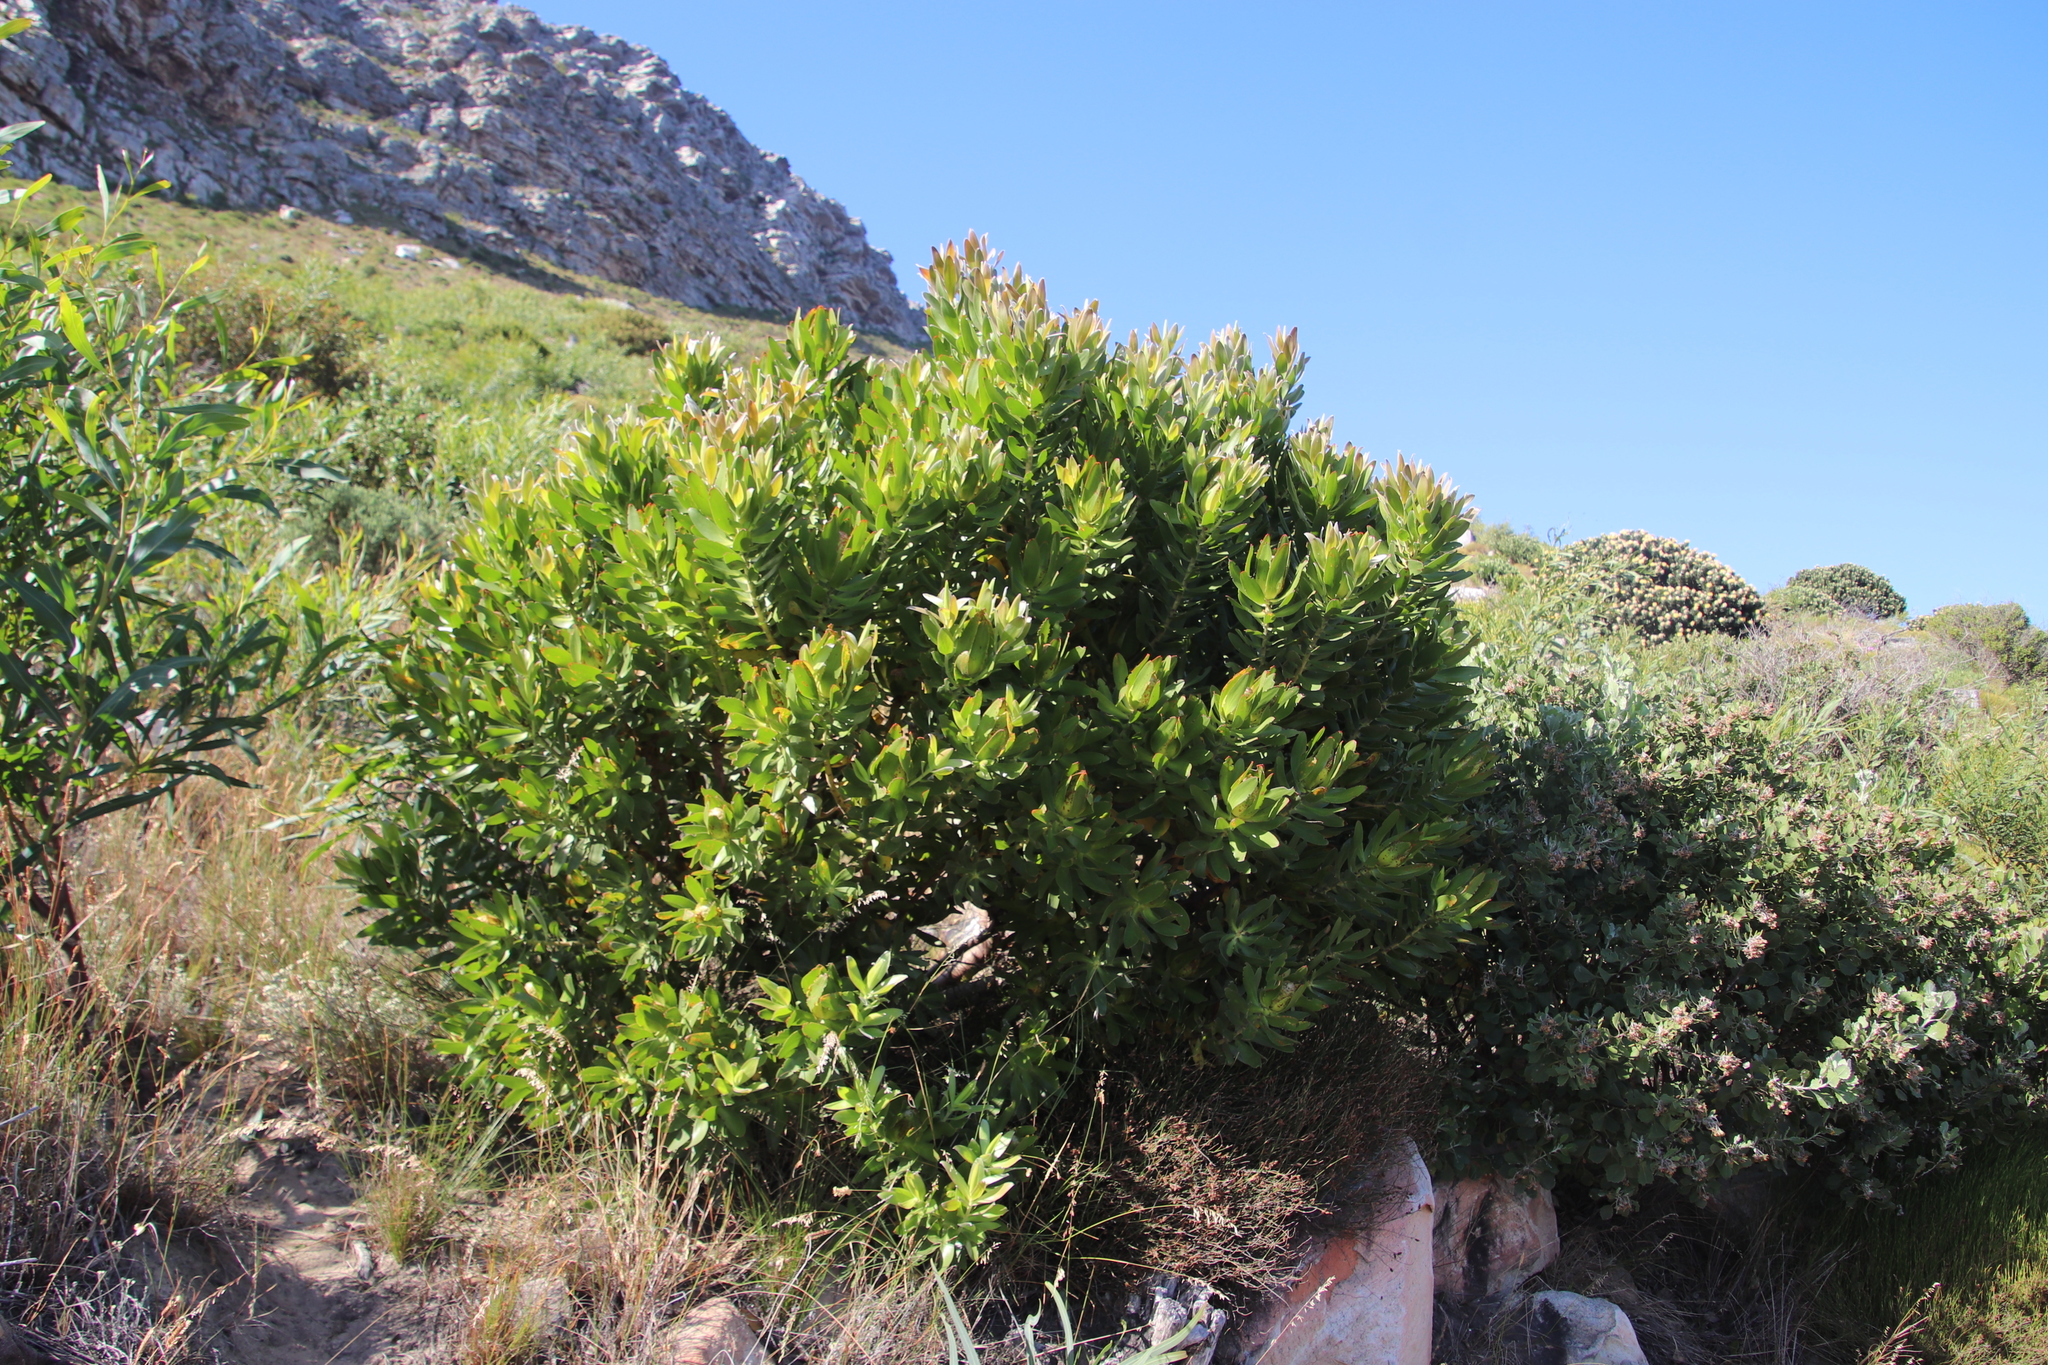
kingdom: Plantae
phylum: Tracheophyta
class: Magnoliopsida
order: Proteales
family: Proteaceae
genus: Leucadendron
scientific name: Leucadendron laureolum
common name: Golden sunshinebush
